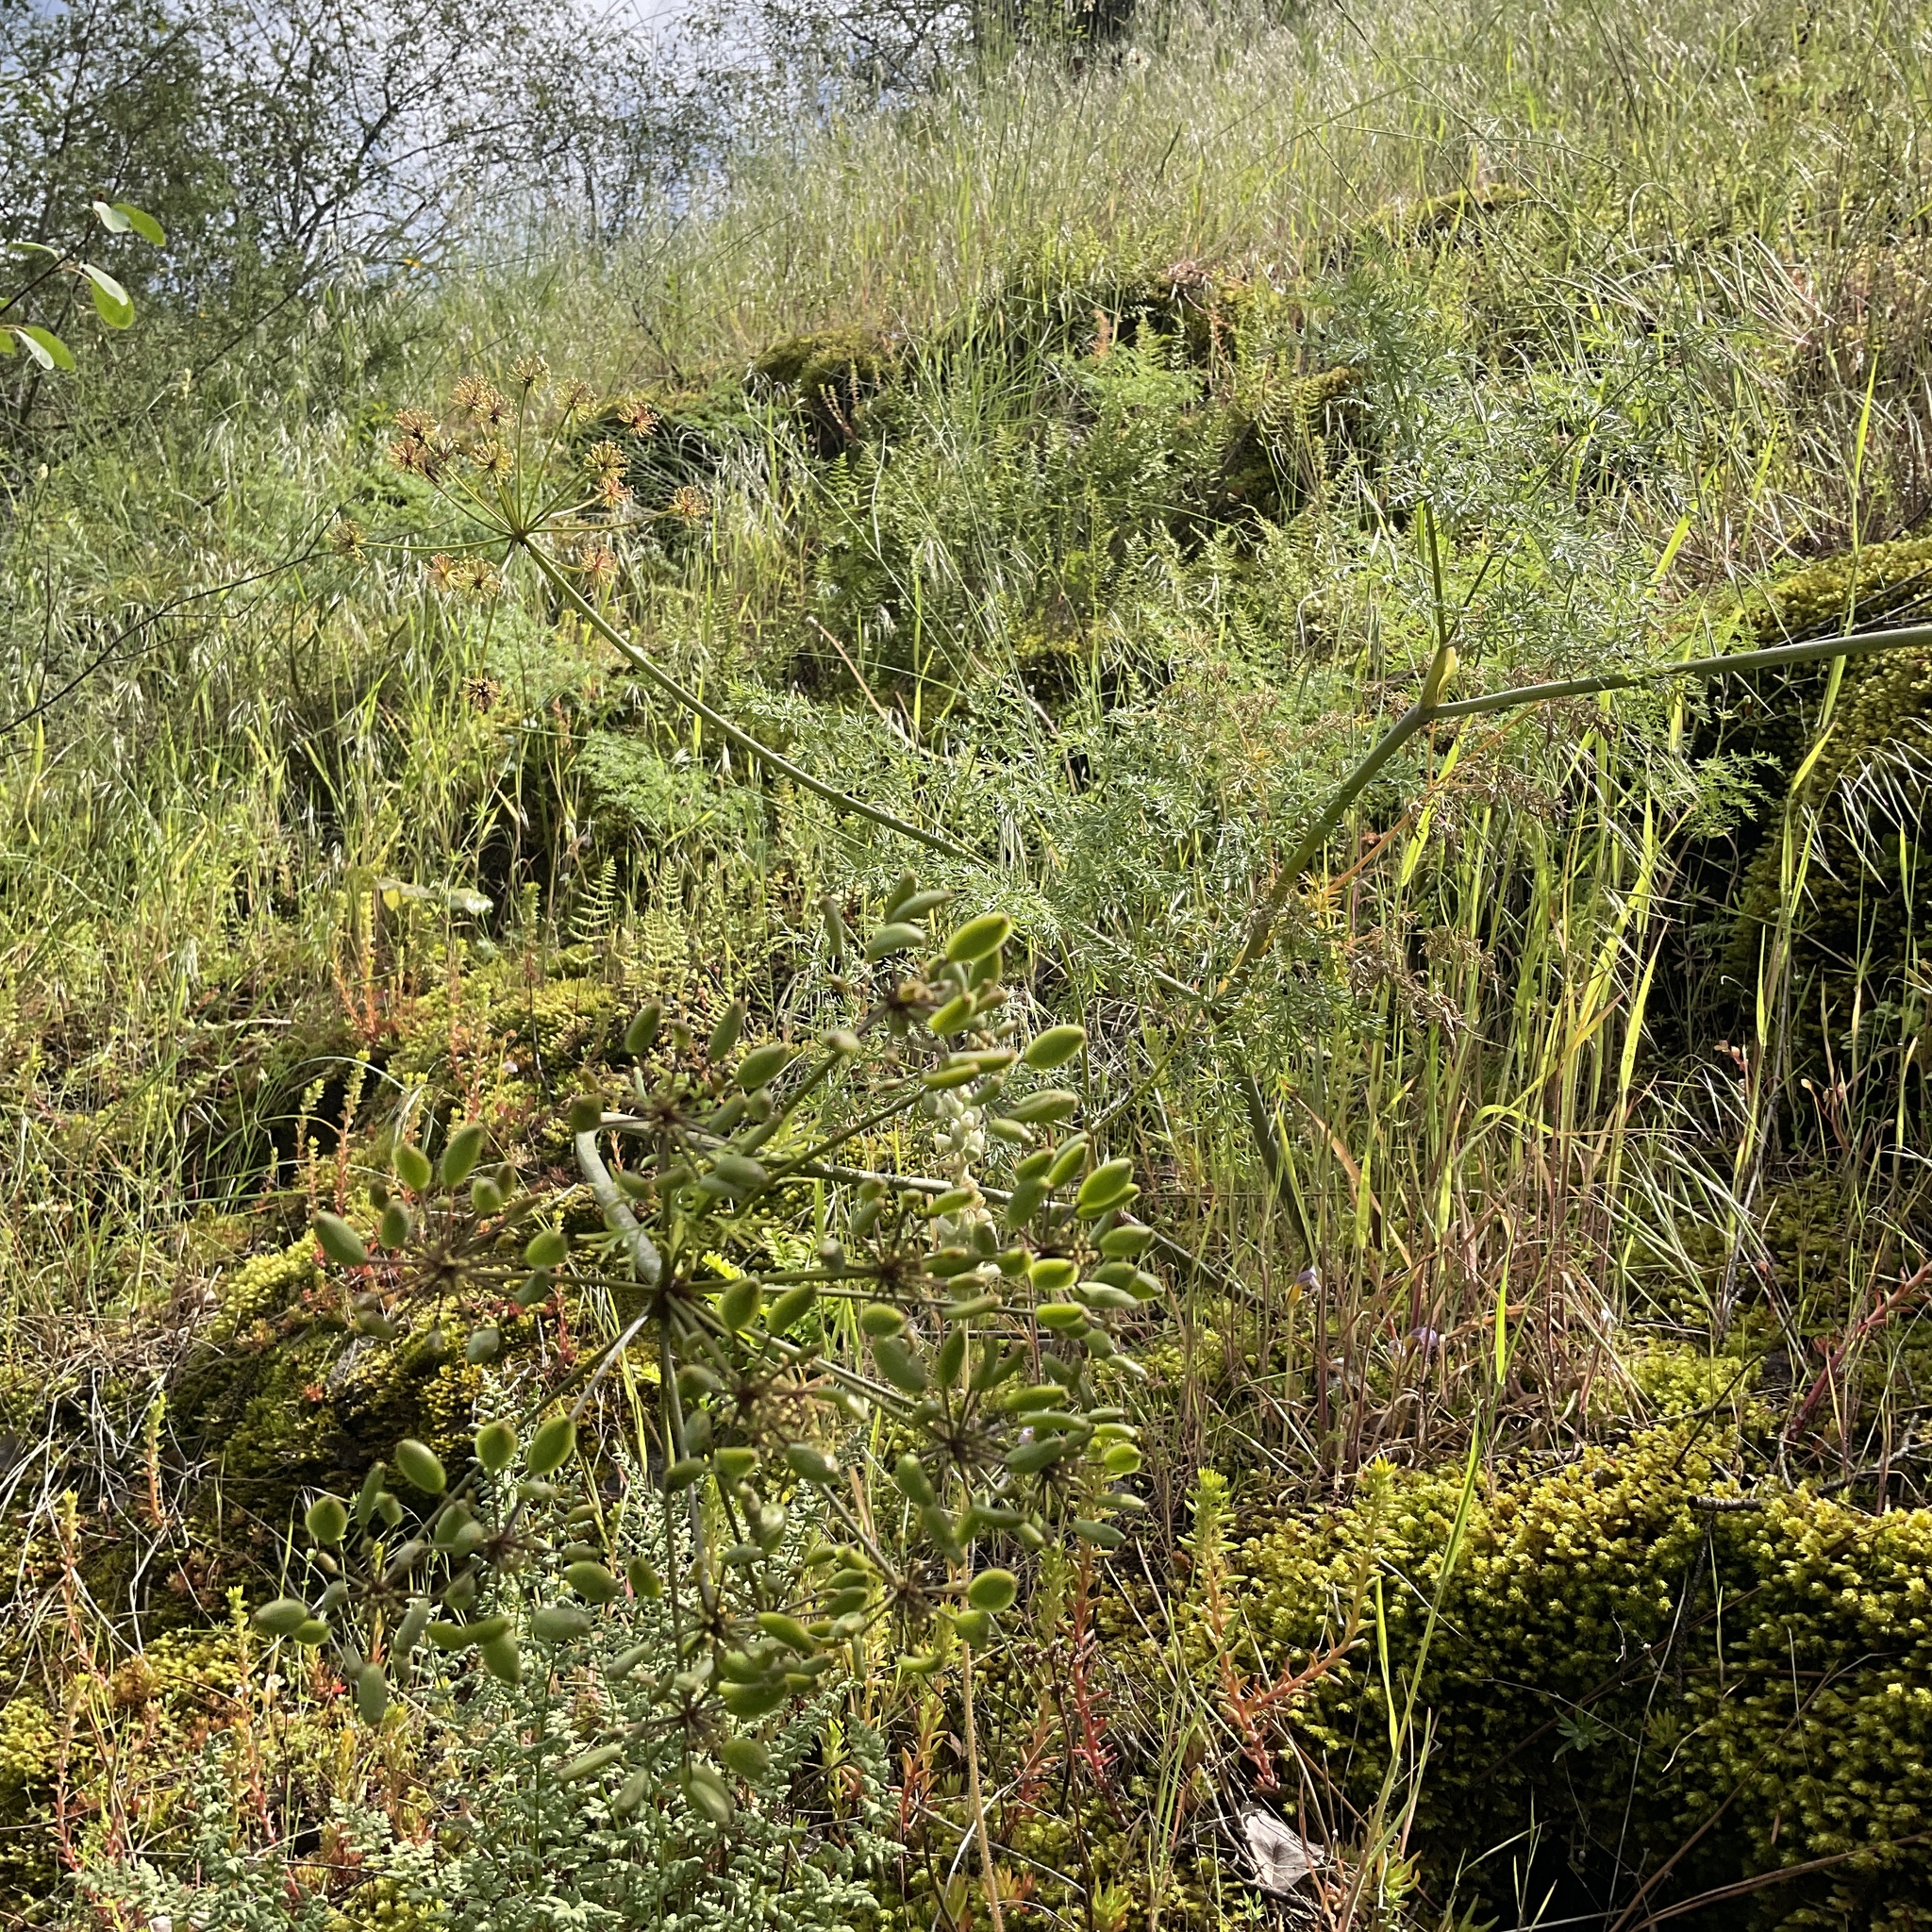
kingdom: Plantae
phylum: Tracheophyta
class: Magnoliopsida
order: Apiales
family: Apiaceae
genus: Lomatium
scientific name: Lomatium multifidum
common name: Carrot-leaved biscuitroot
